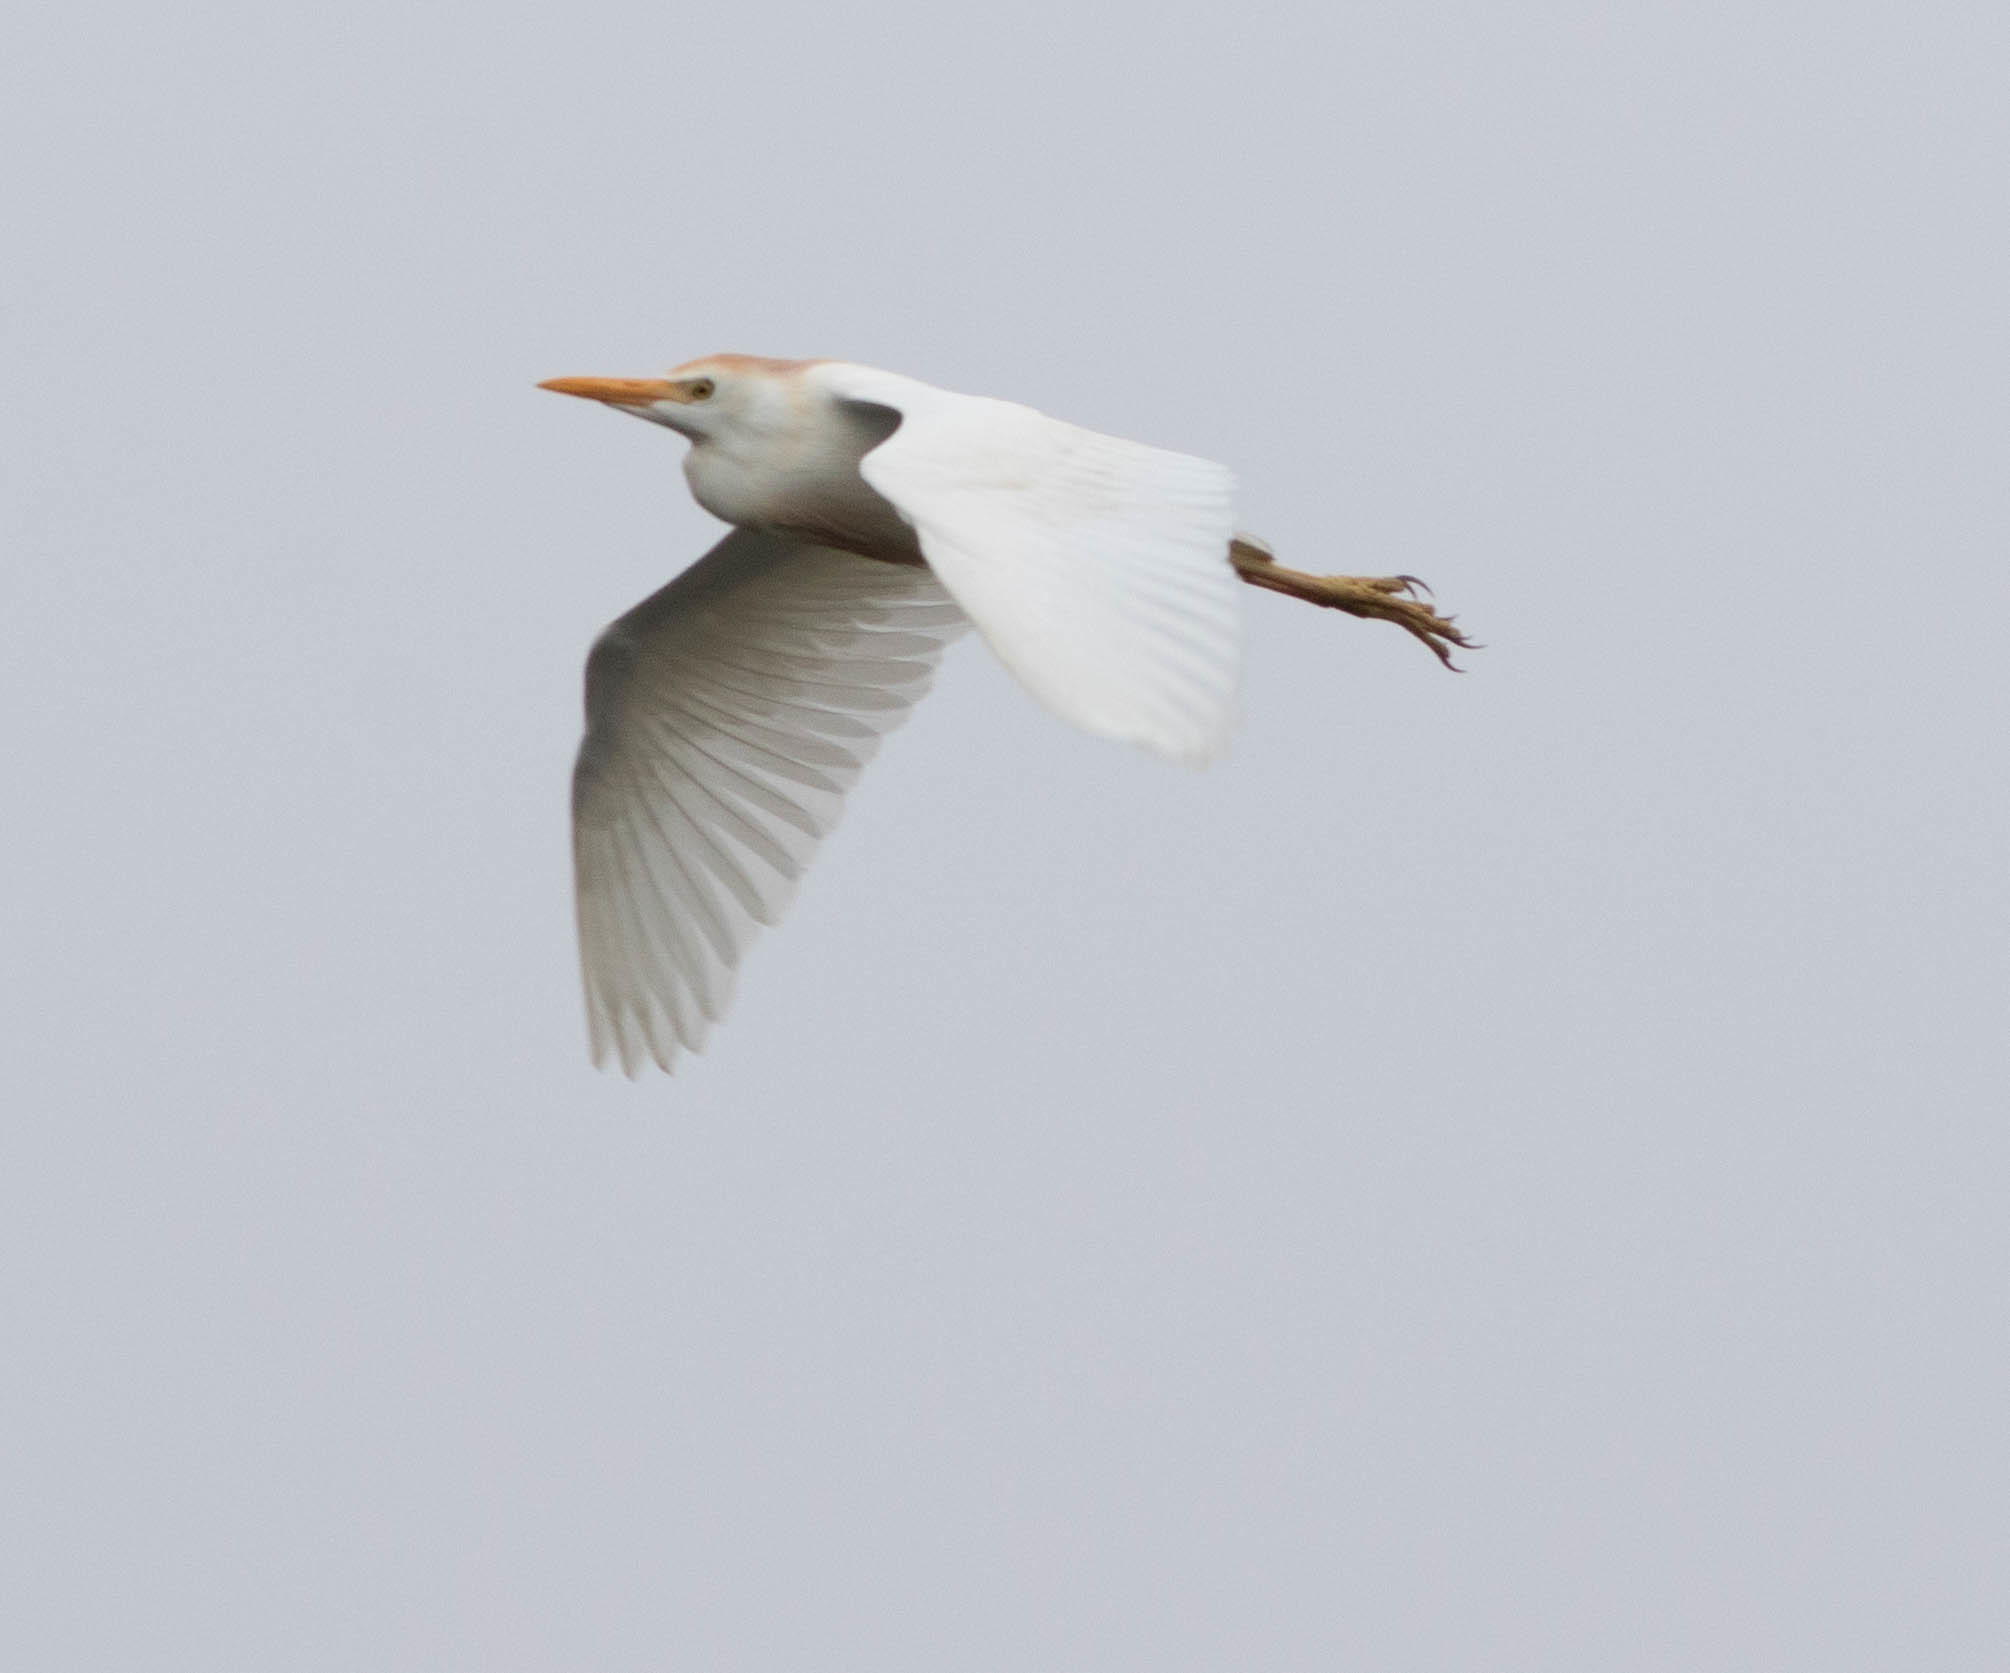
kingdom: Animalia
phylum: Chordata
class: Aves
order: Pelecaniformes
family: Ardeidae
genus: Bubulcus
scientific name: Bubulcus ibis
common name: Cattle egret
